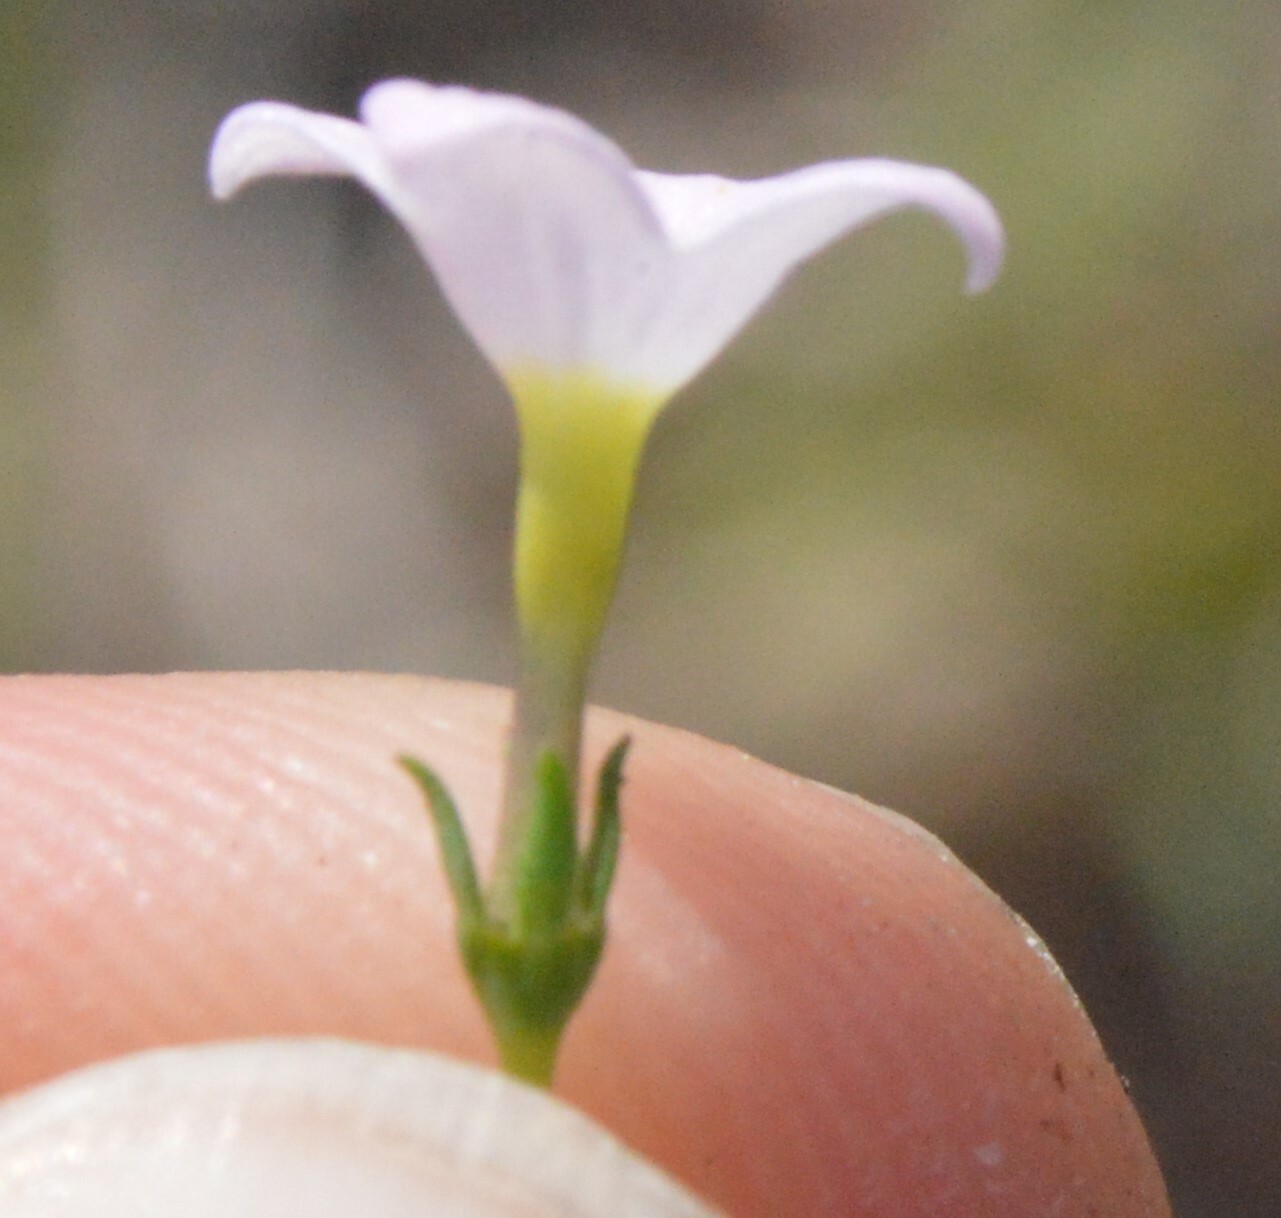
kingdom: Plantae
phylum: Tracheophyta
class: Magnoliopsida
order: Gentianales
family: Rubiaceae
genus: Houstonia
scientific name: Houstonia rosea
